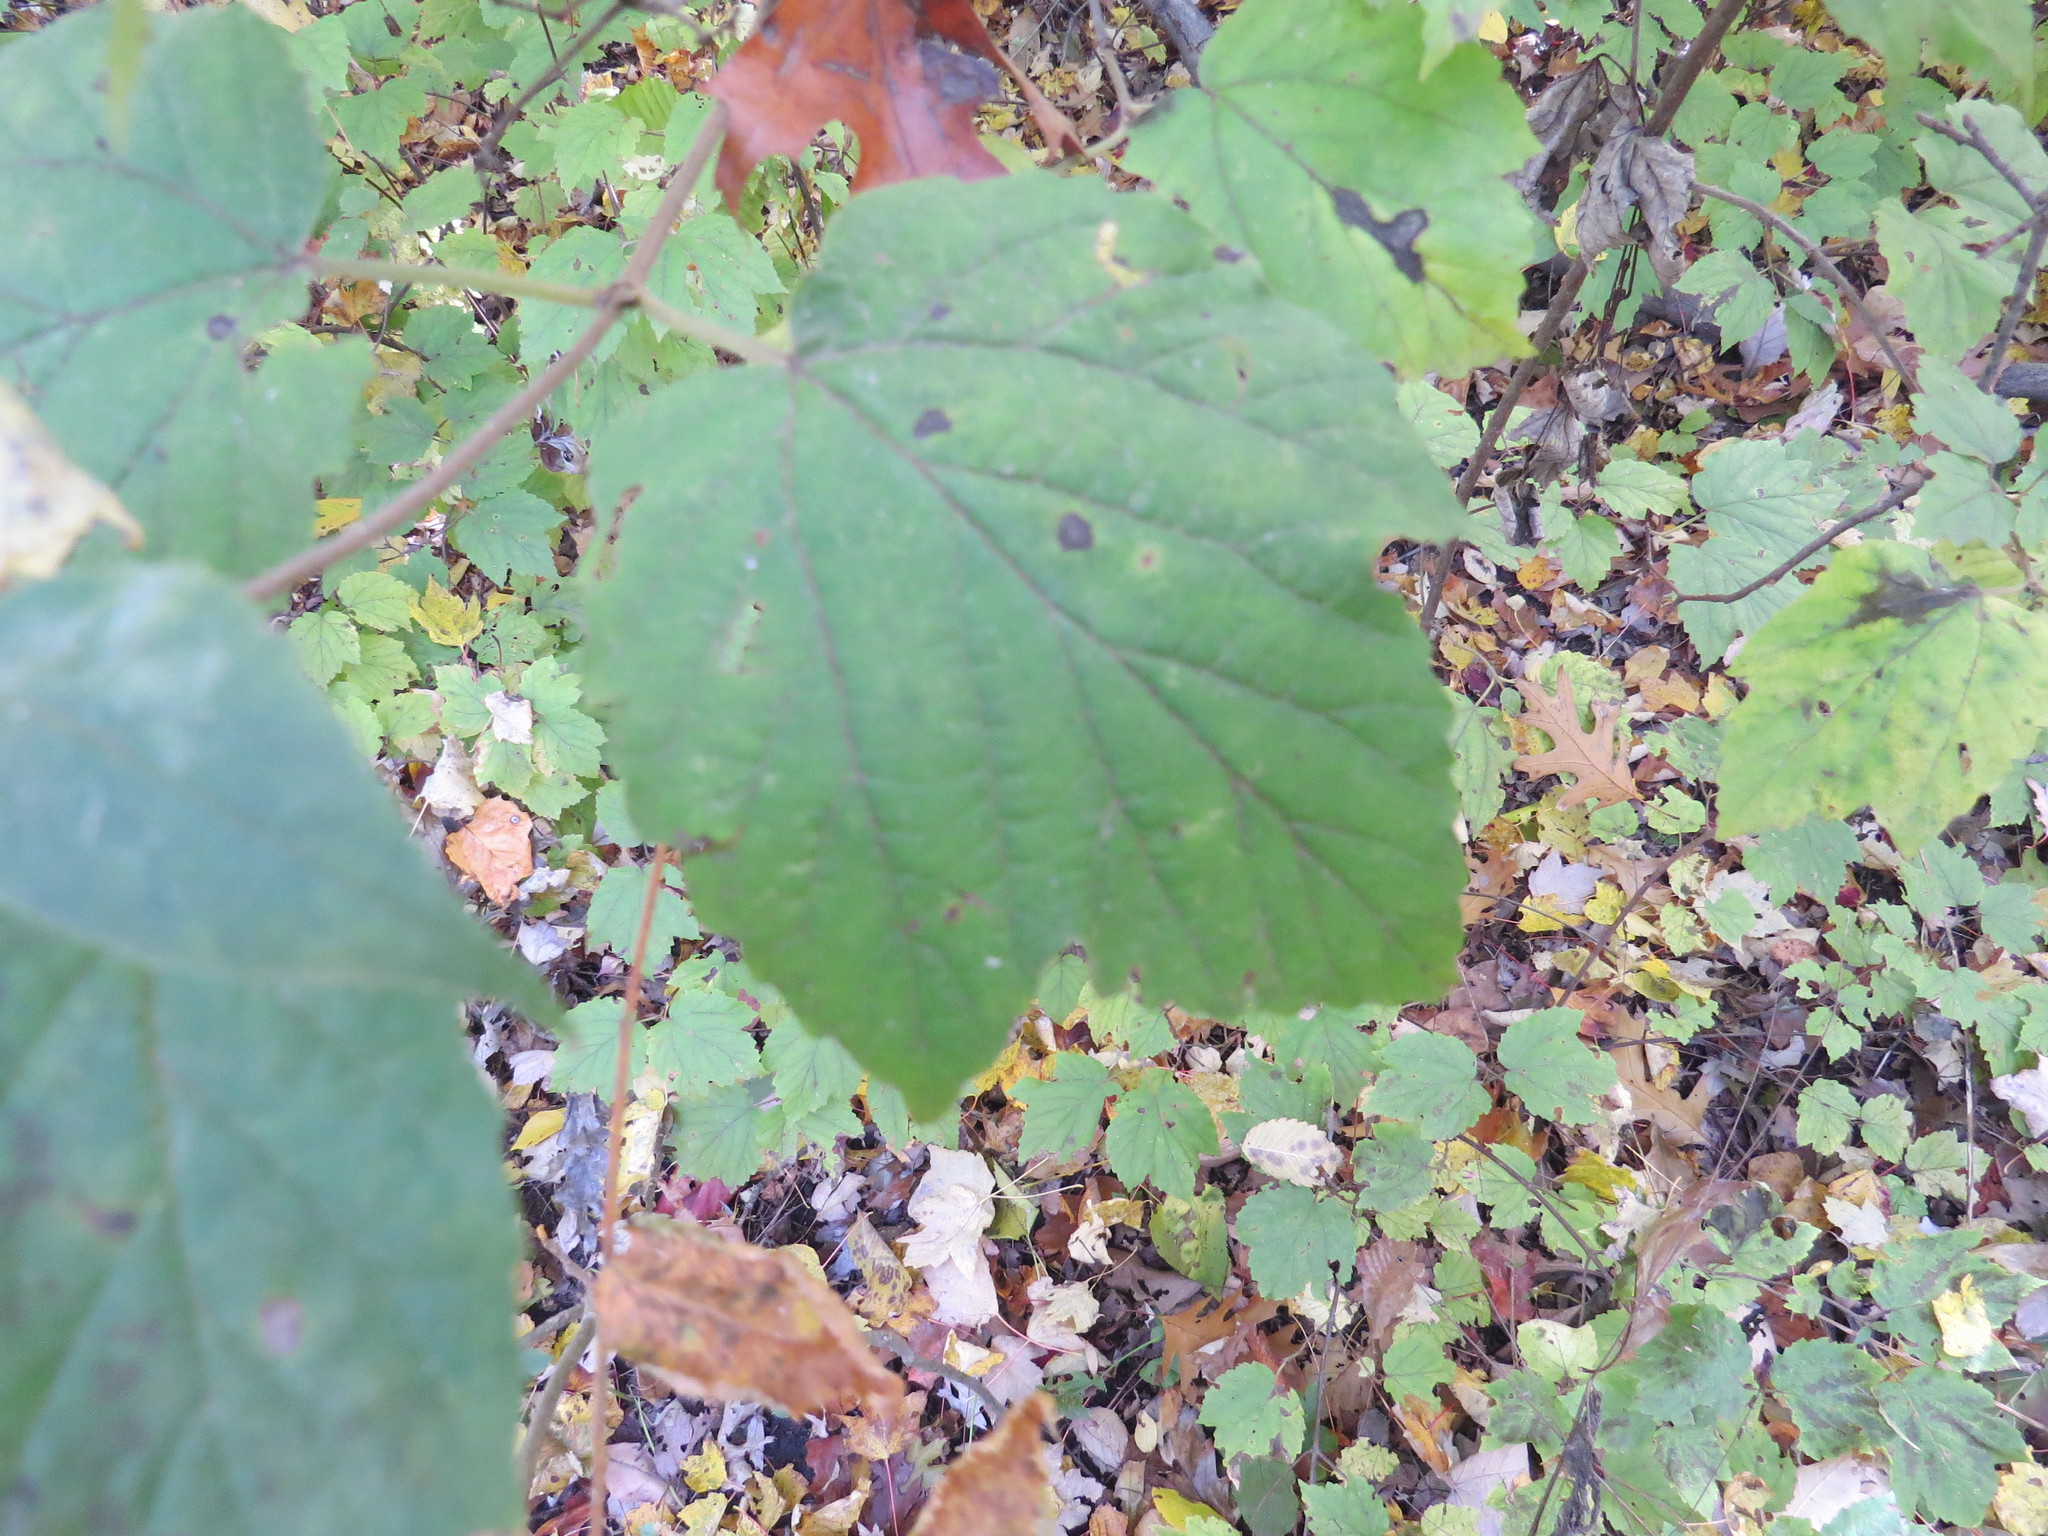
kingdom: Plantae
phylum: Tracheophyta
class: Magnoliopsida
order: Dipsacales
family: Viburnaceae
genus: Viburnum
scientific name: Viburnum acerifolium
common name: Dockmackie
